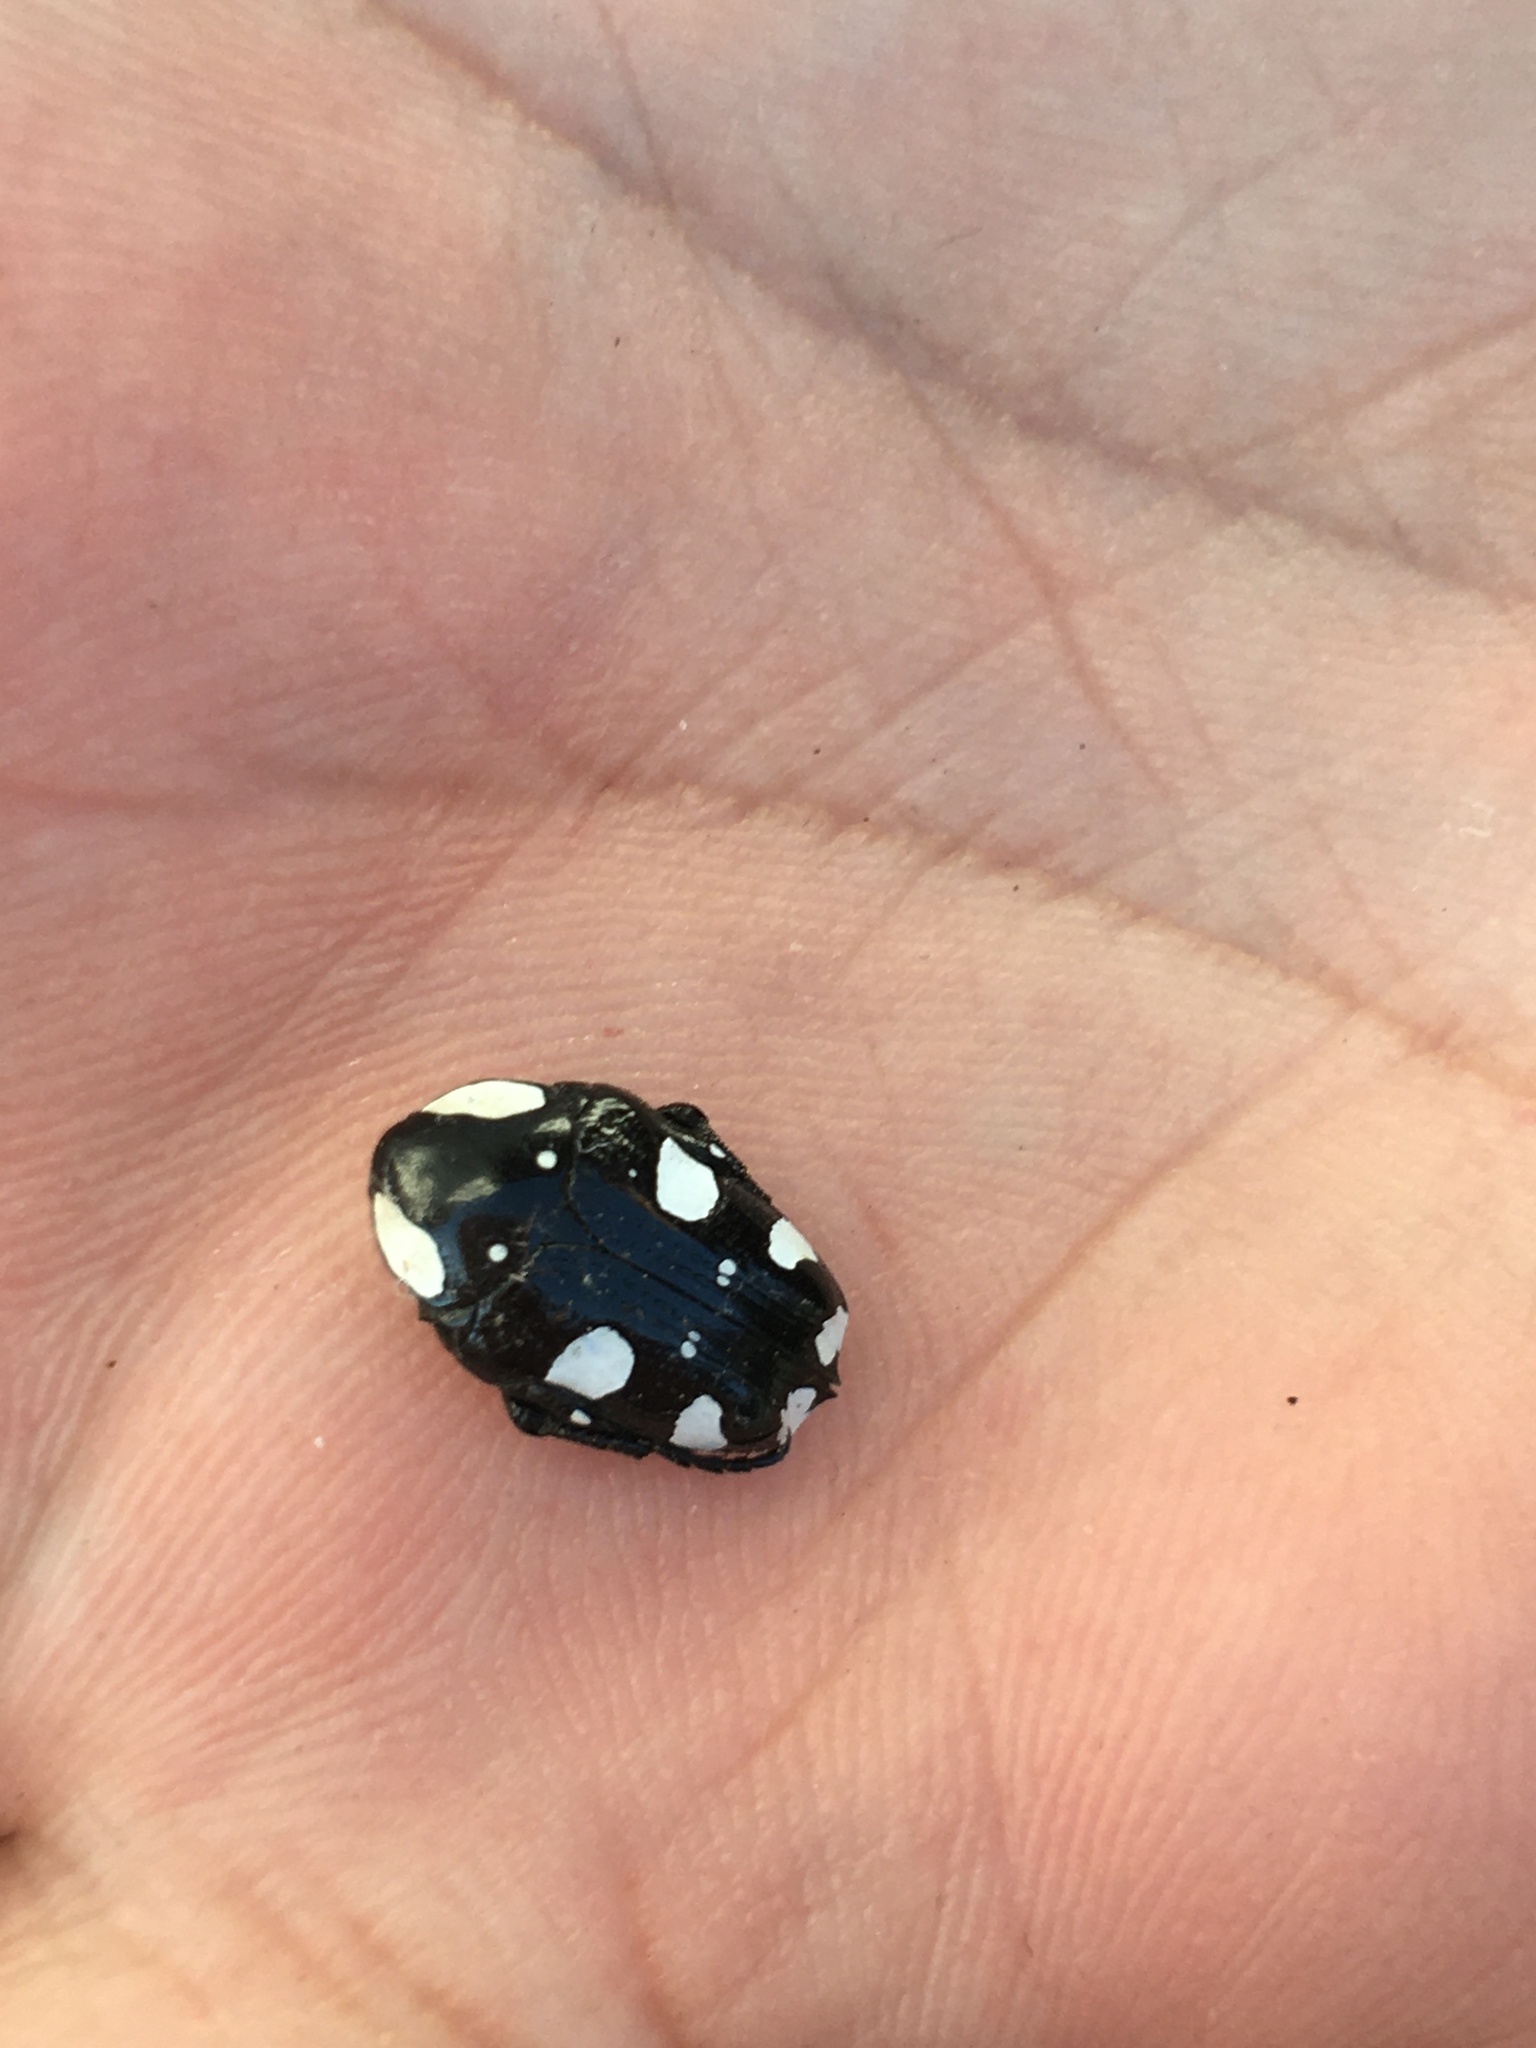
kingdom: Animalia
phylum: Arthropoda
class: Insecta
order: Coleoptera
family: Scarabaeidae
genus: Mausoleopsis
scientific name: Mausoleopsis amabilis
